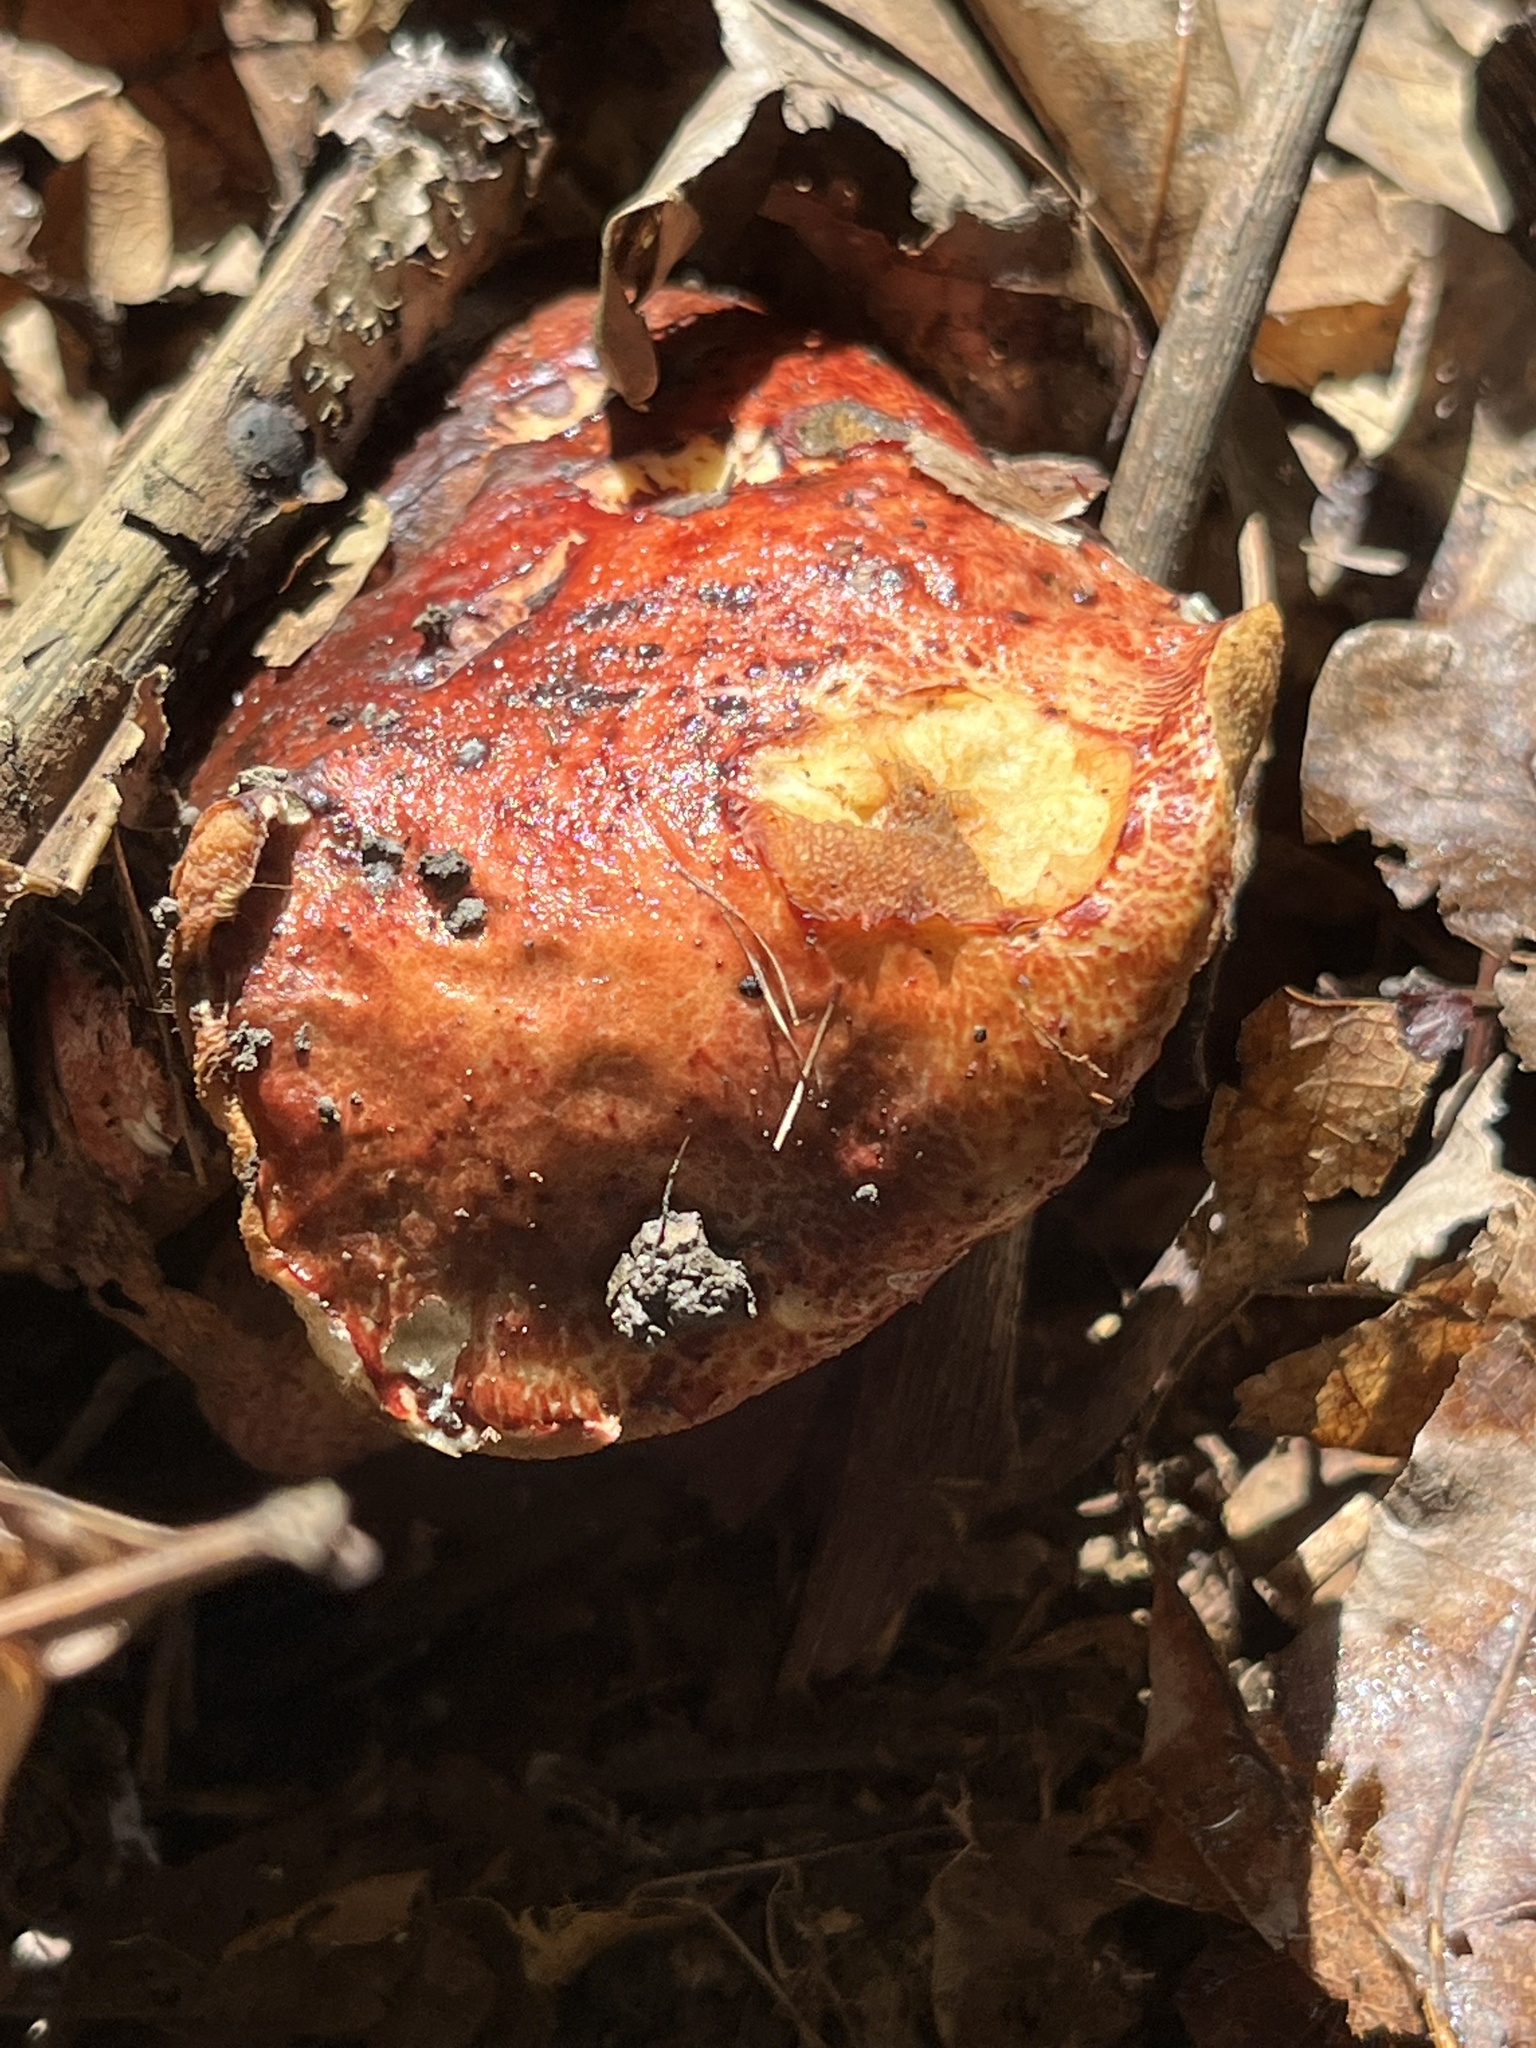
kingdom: Fungi
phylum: Basidiomycota
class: Agaricomycetes
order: Boletales
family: Boletaceae
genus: Butyriboletus
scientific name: Butyriboletus frostii
